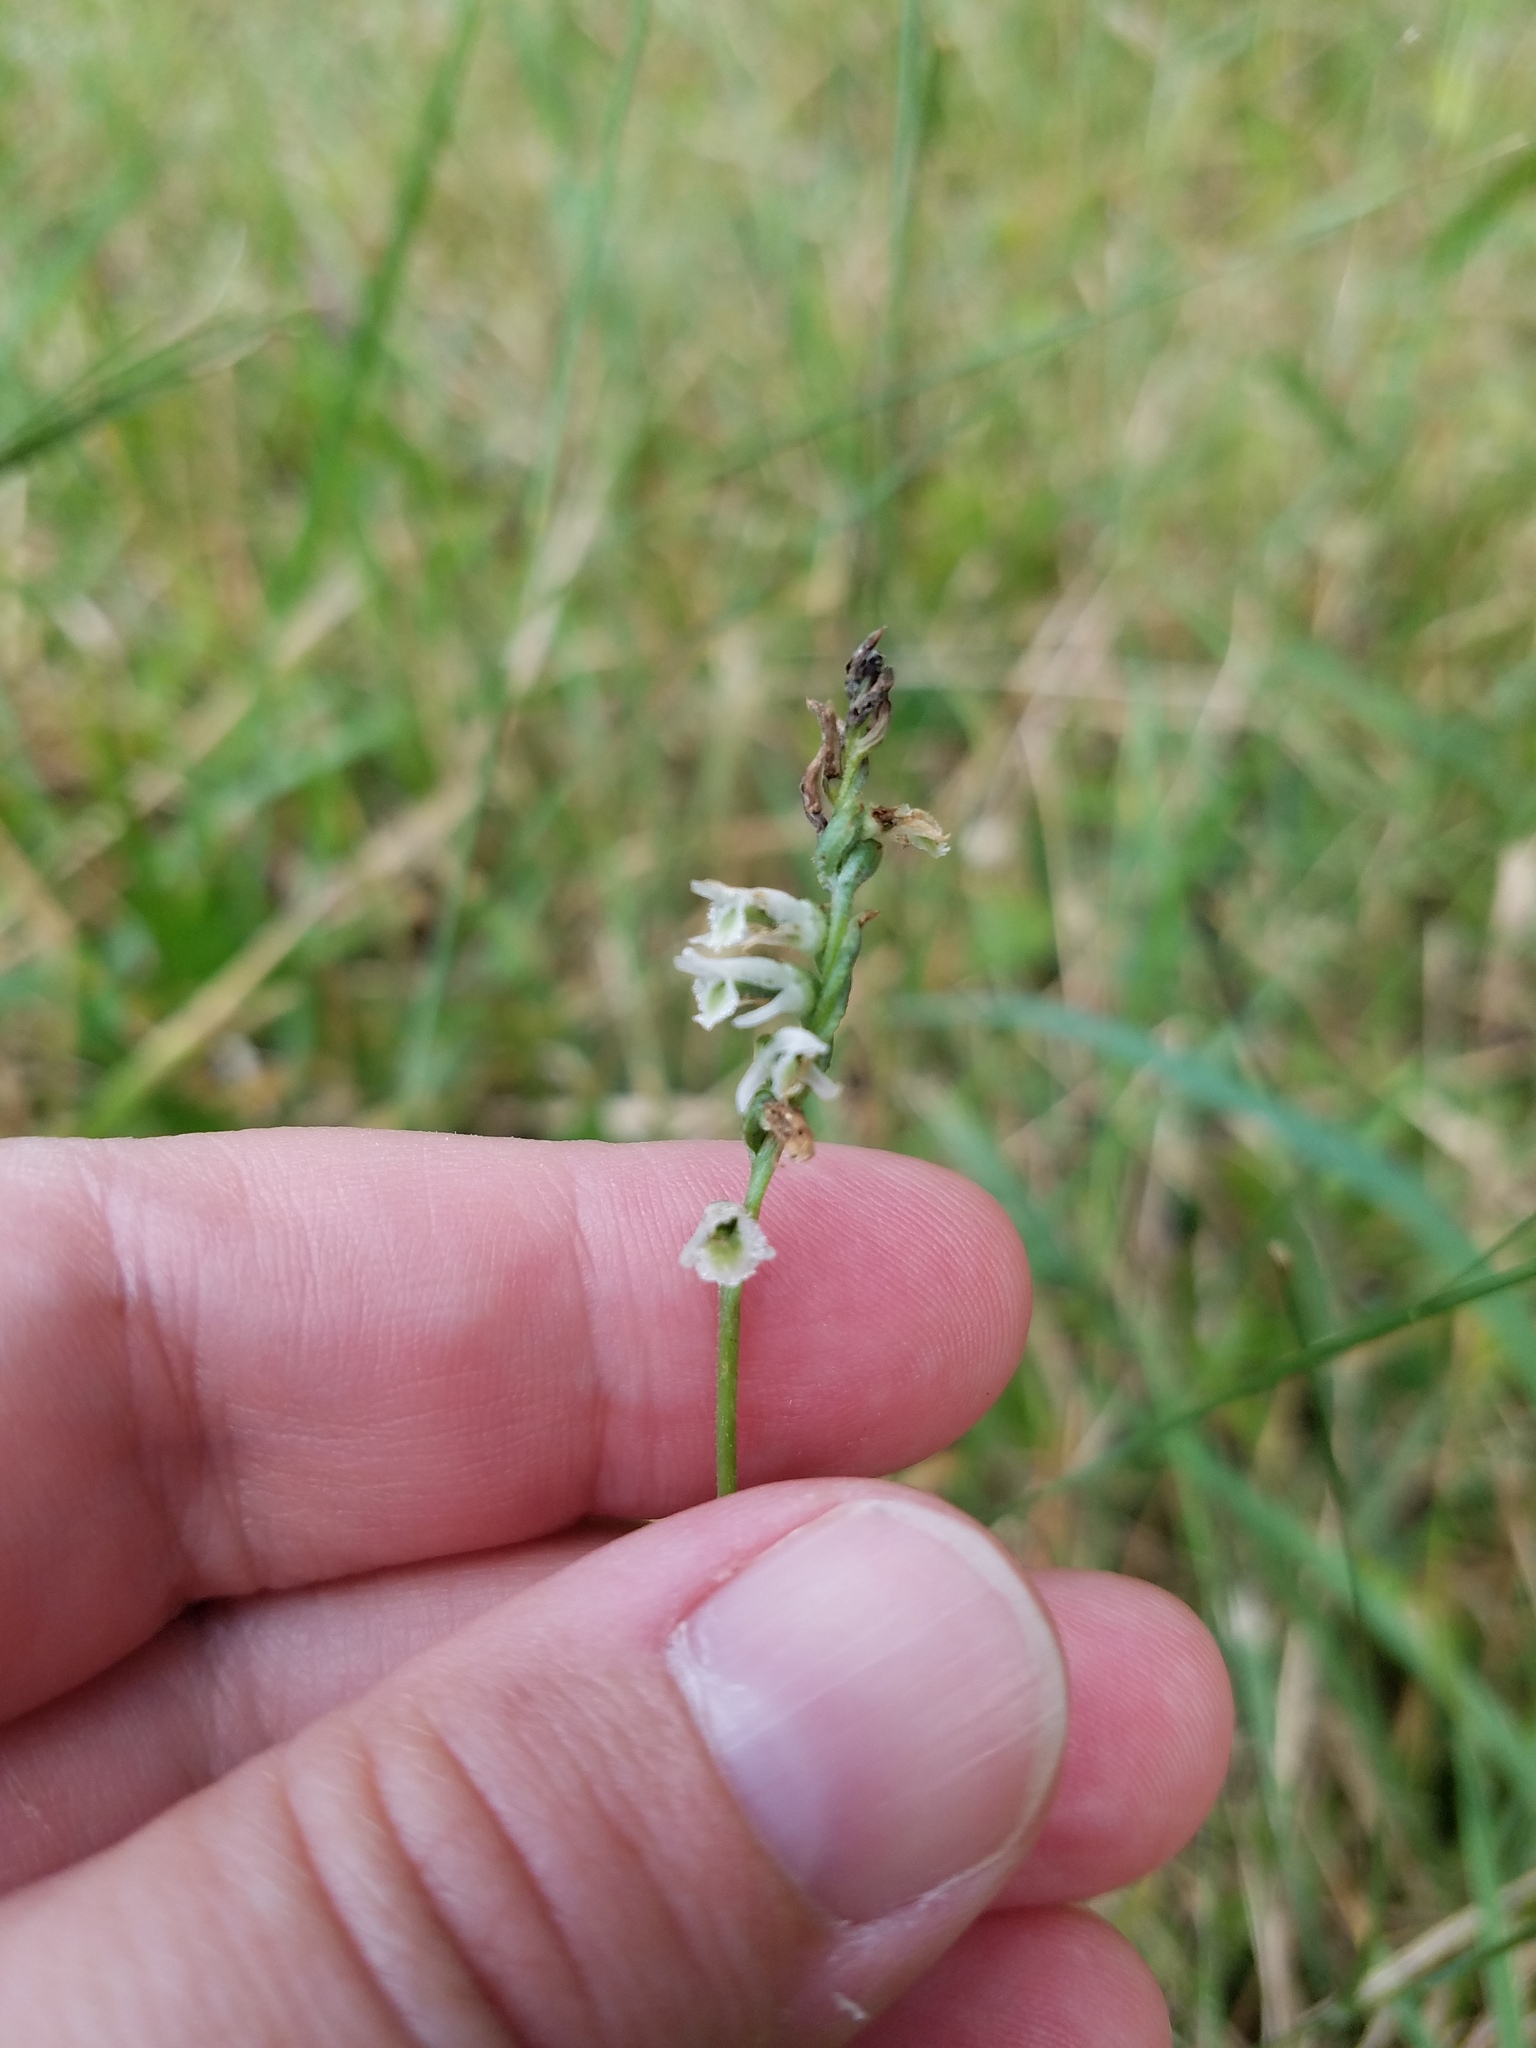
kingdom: Plantae
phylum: Tracheophyta
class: Liliopsida
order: Asparagales
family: Orchidaceae
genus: Spiranthes
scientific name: Spiranthes lacera
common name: Northern slender ladies'-tresses
